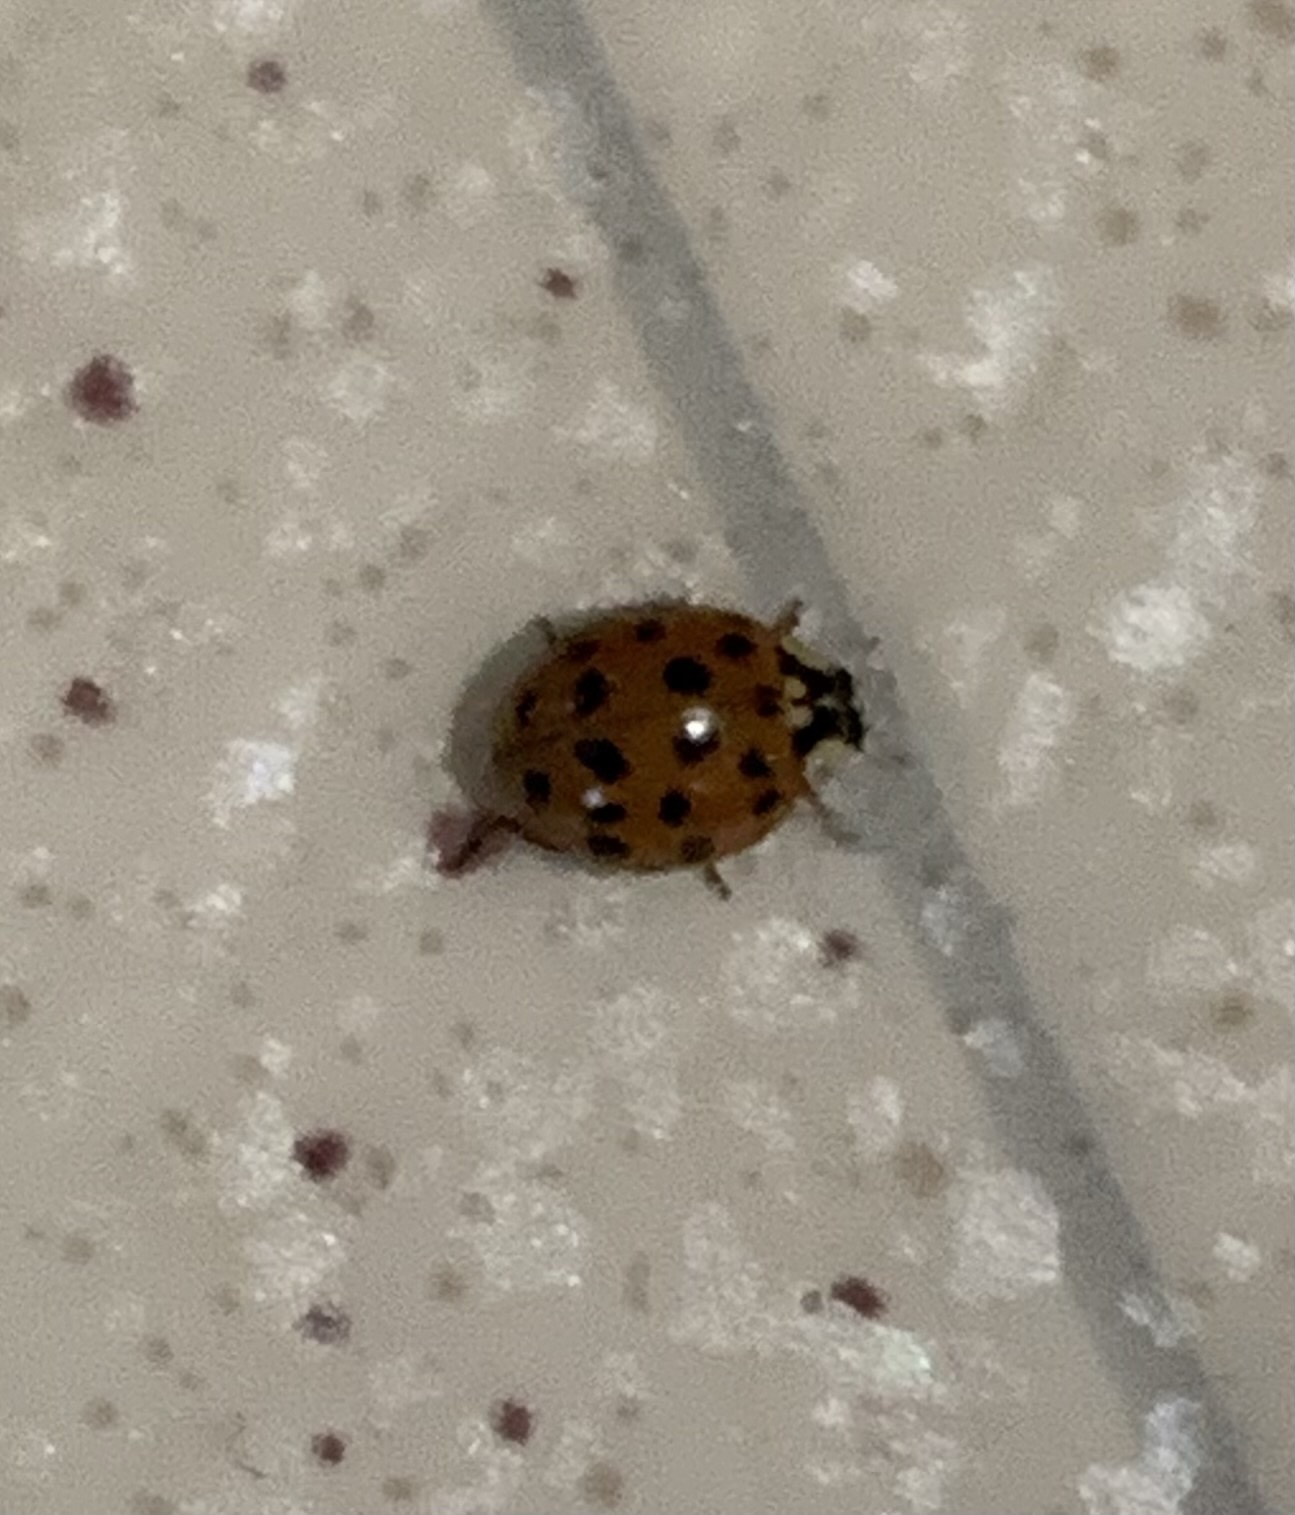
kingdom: Animalia
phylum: Arthropoda
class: Insecta
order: Coleoptera
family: Coccinellidae
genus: Harmonia
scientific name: Harmonia axyridis
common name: Harlequin ladybird
